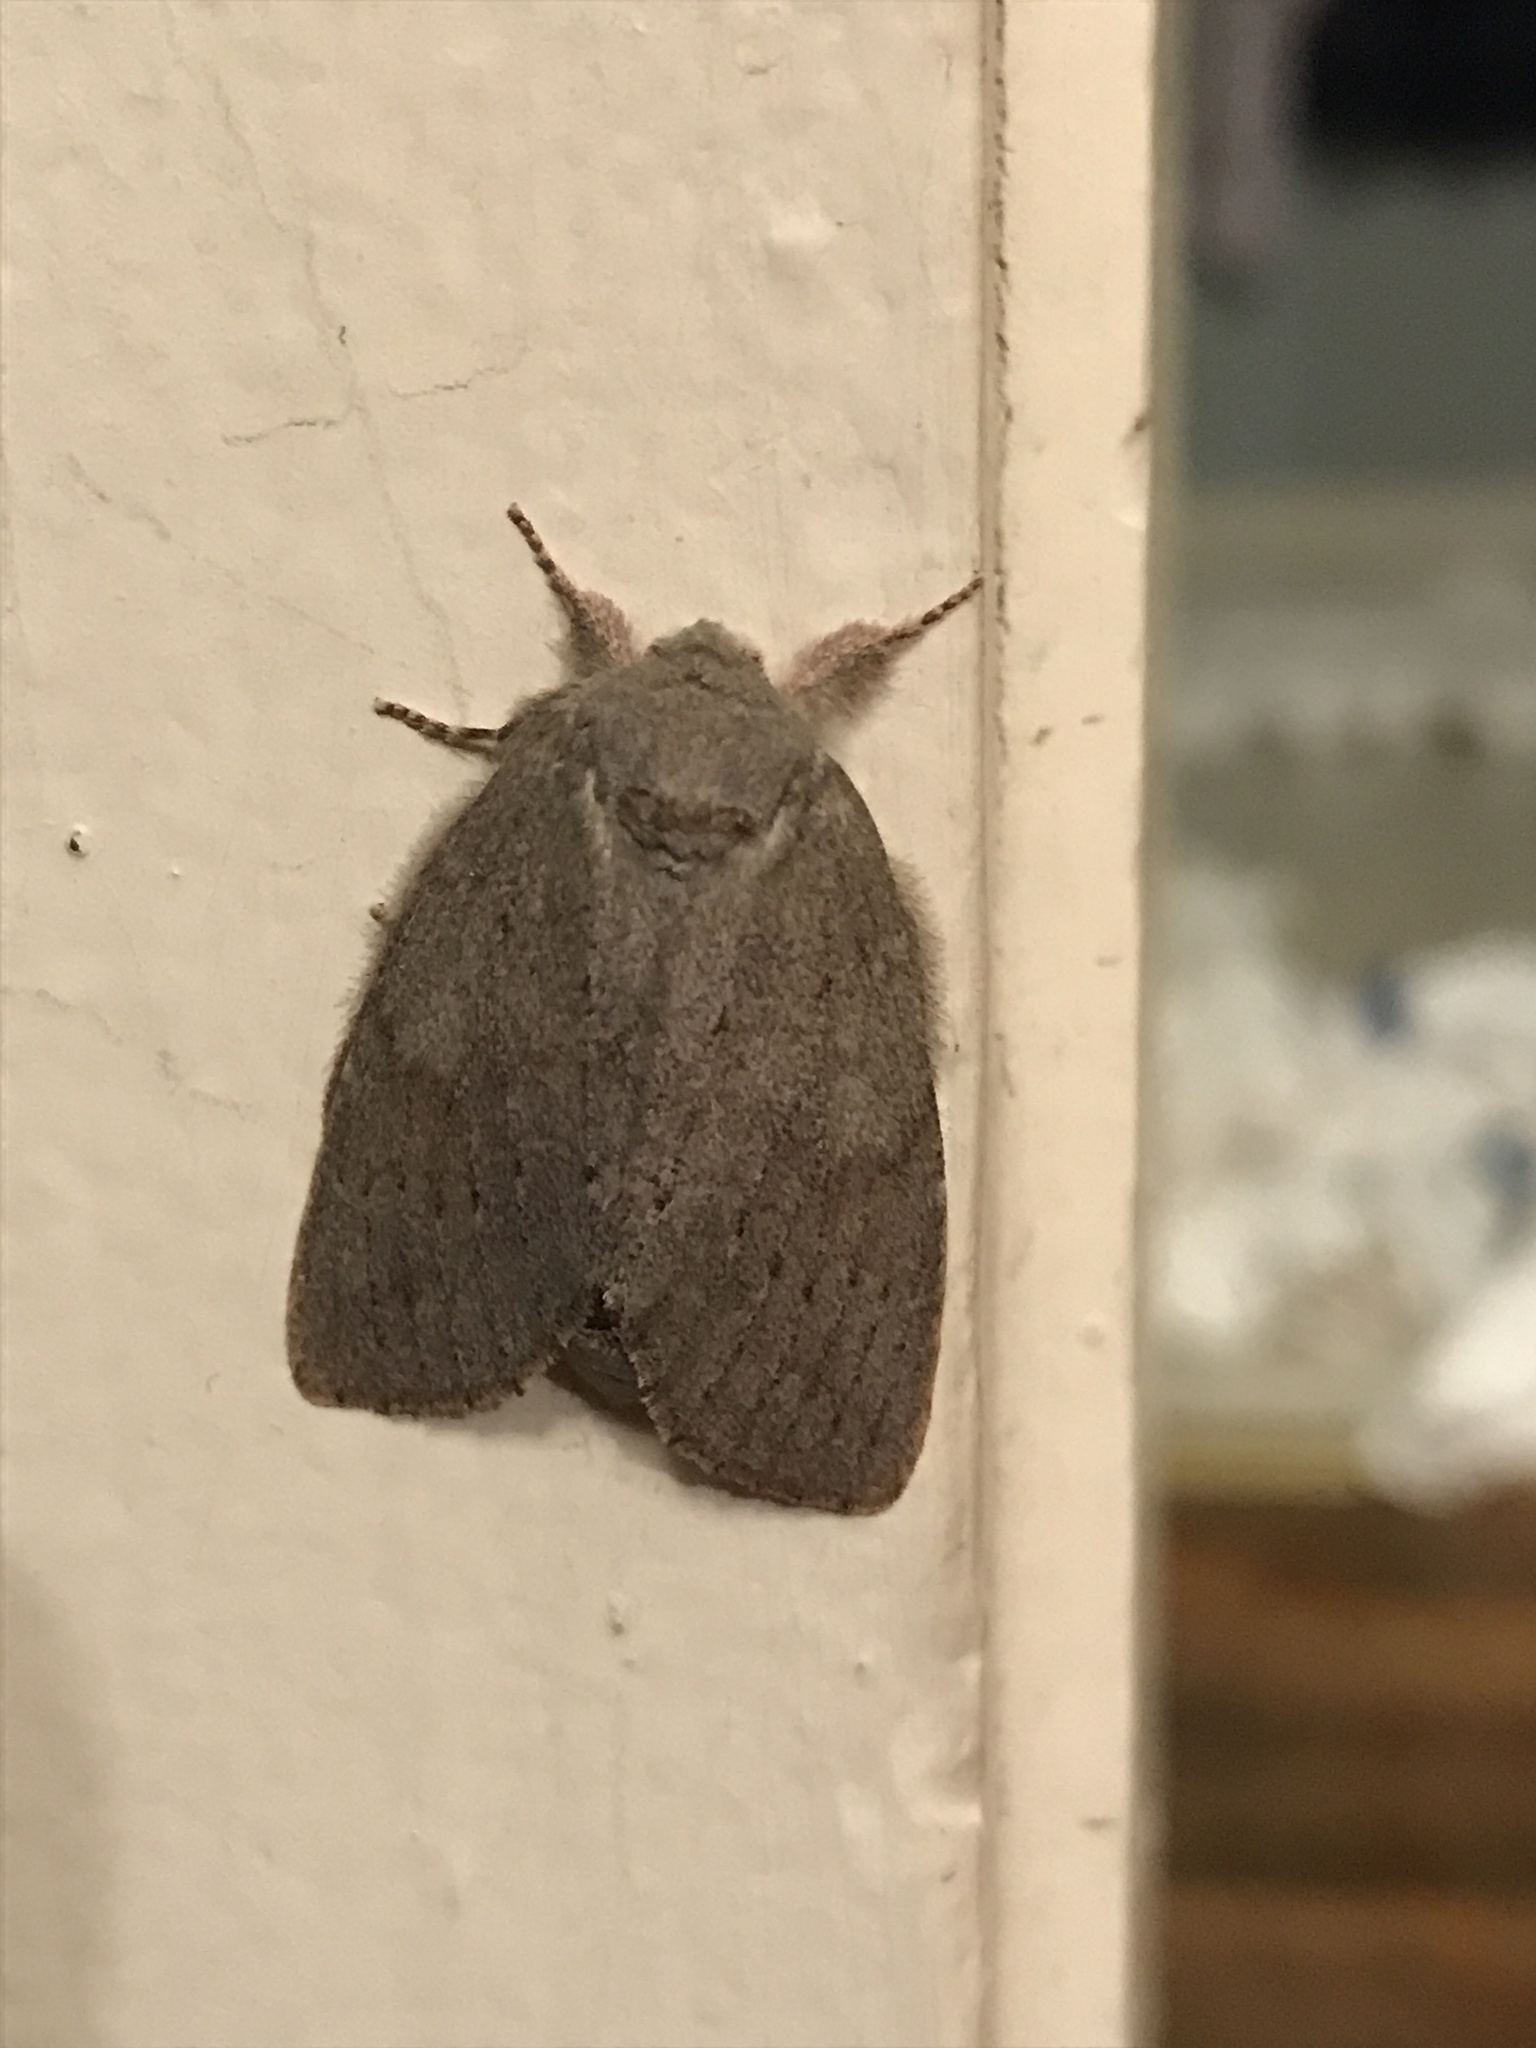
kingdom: Animalia
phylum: Arthropoda
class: Insecta
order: Lepidoptera
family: Notodontidae
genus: Misogada
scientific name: Misogada unicolor
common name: Drab prominent
